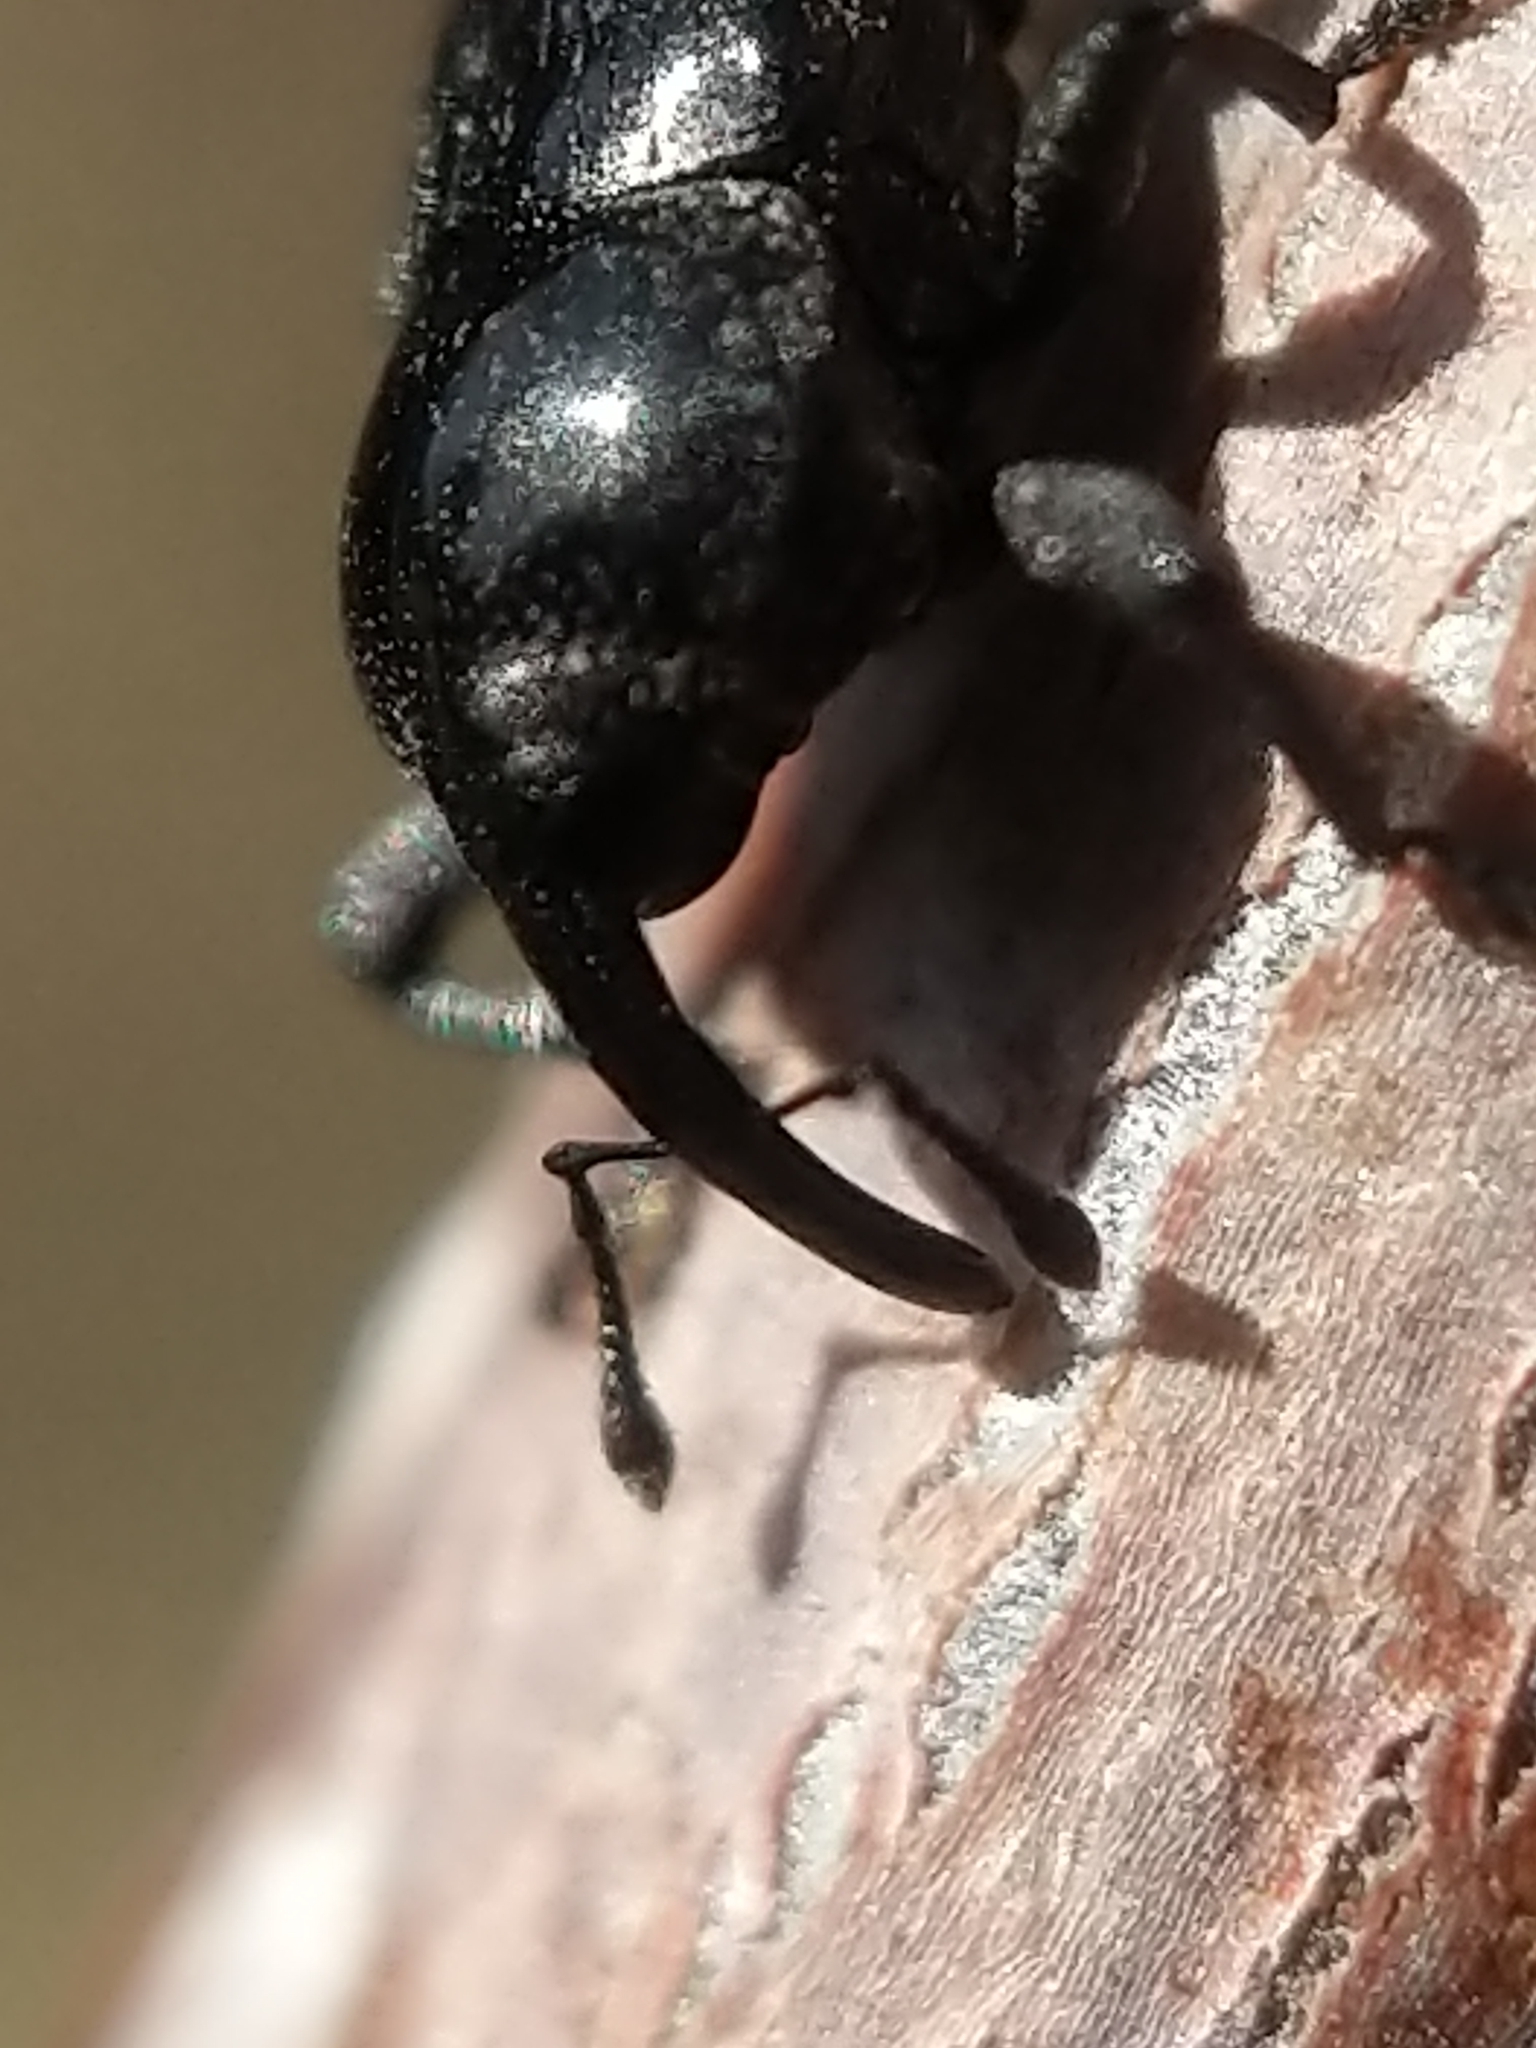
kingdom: Animalia
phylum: Arthropoda
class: Insecta
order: Coleoptera
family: Curculionidae
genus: Madarellus
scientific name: Madarellus undulatus
